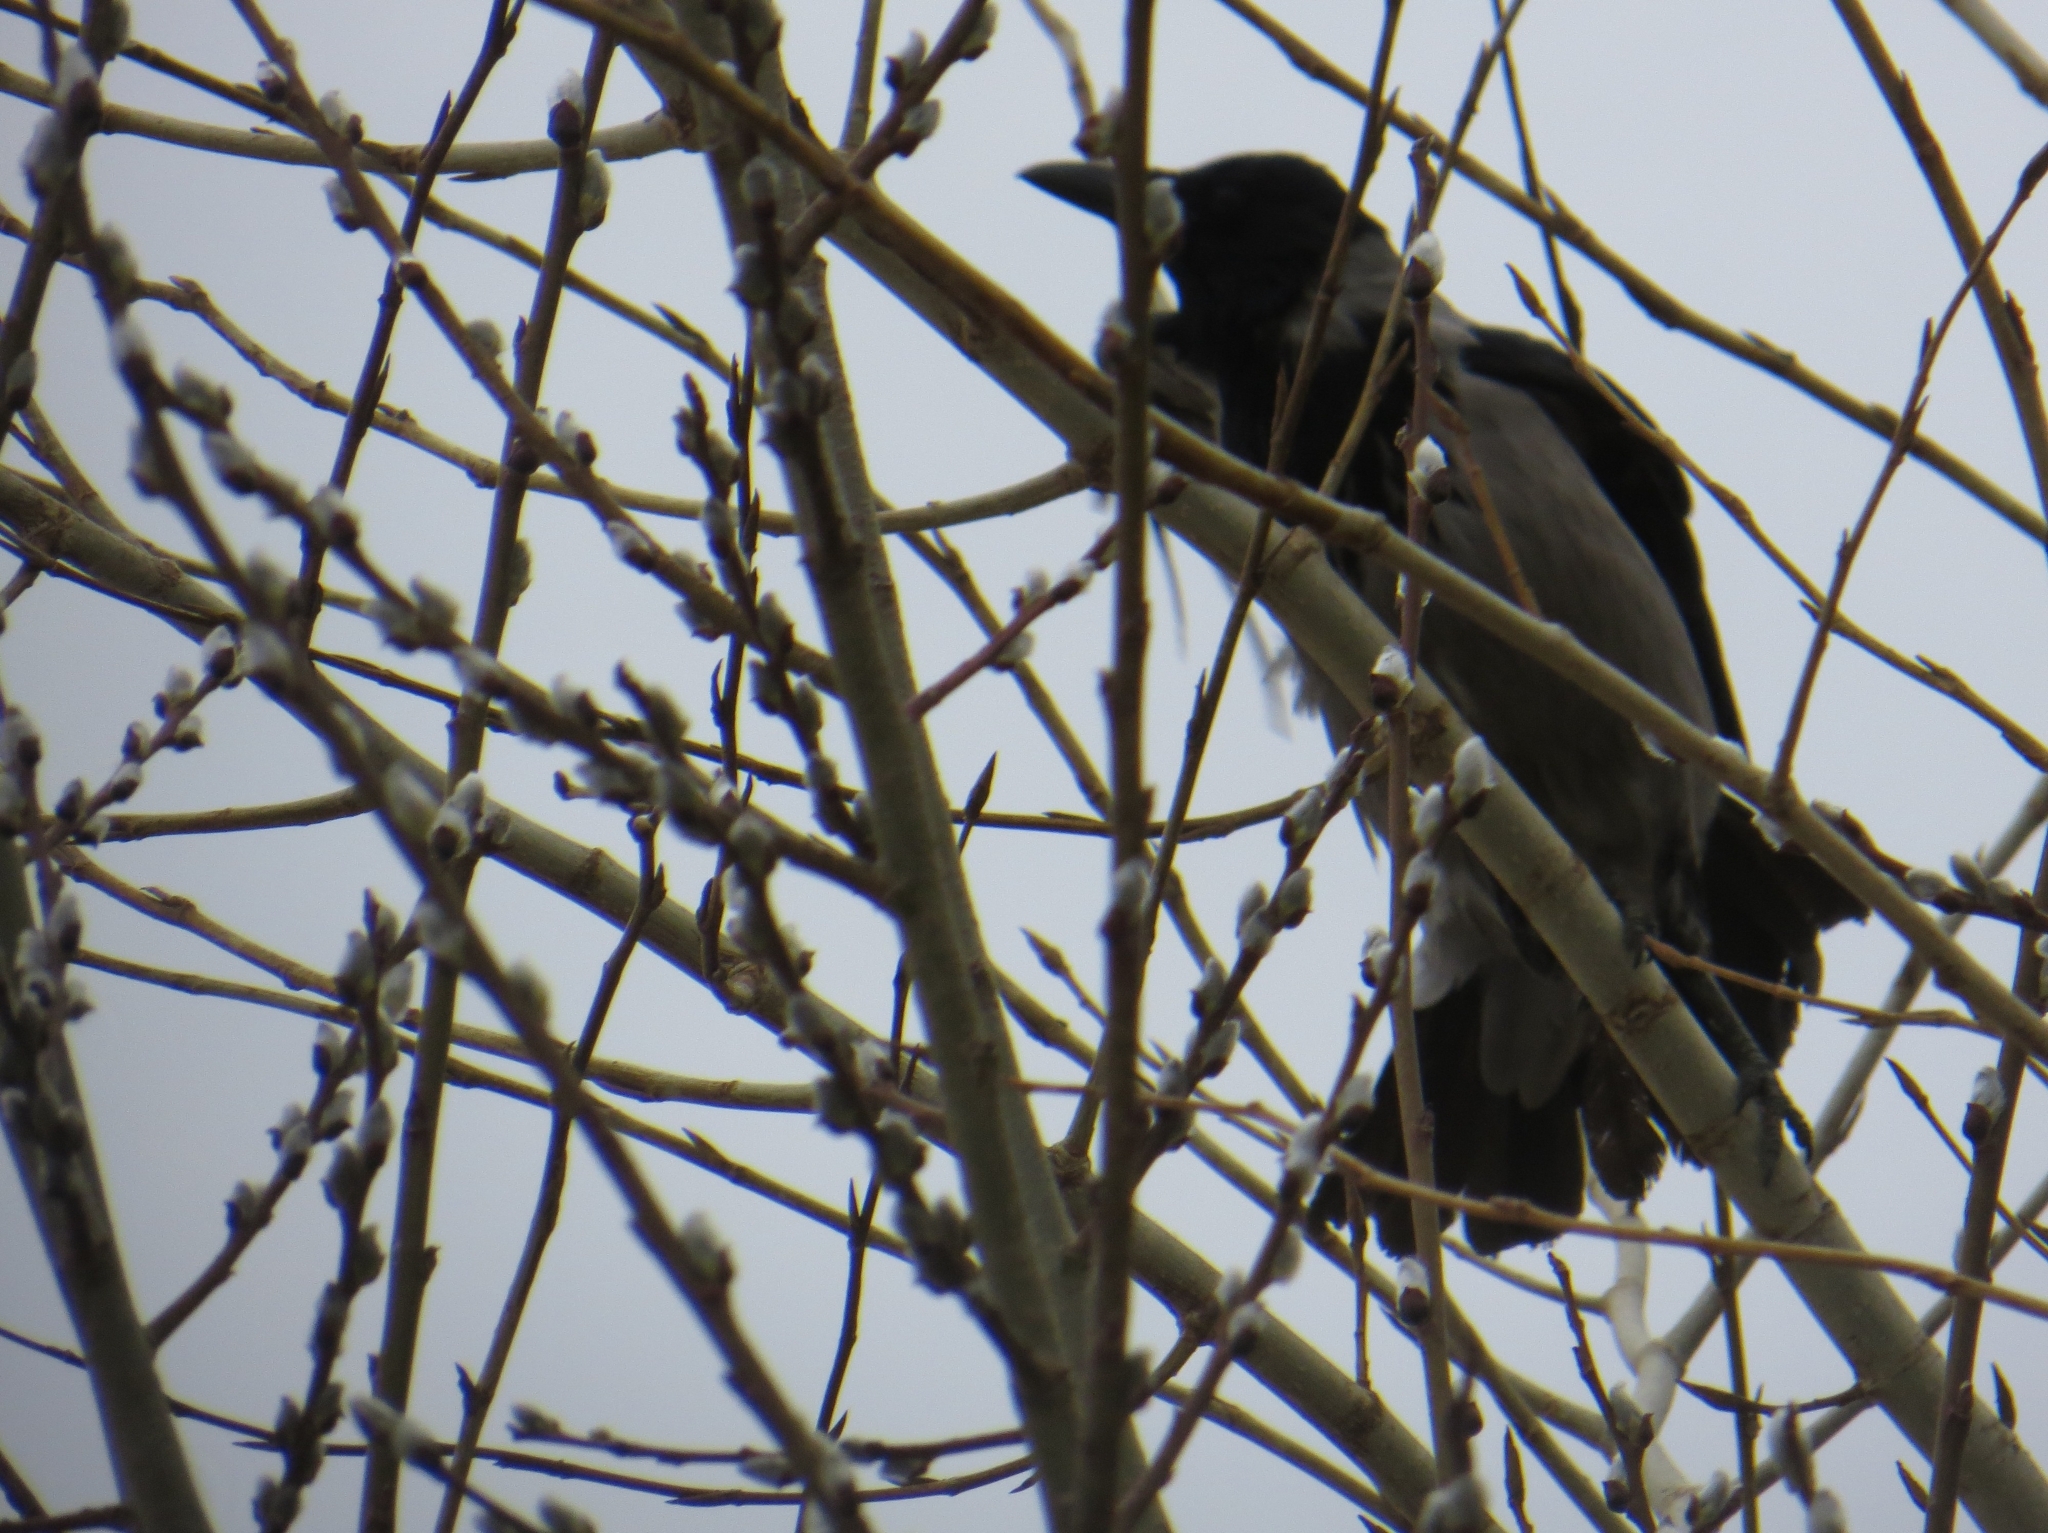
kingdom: Animalia
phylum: Chordata
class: Aves
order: Passeriformes
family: Corvidae
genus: Corvus
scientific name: Corvus cornix
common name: Hooded crow
